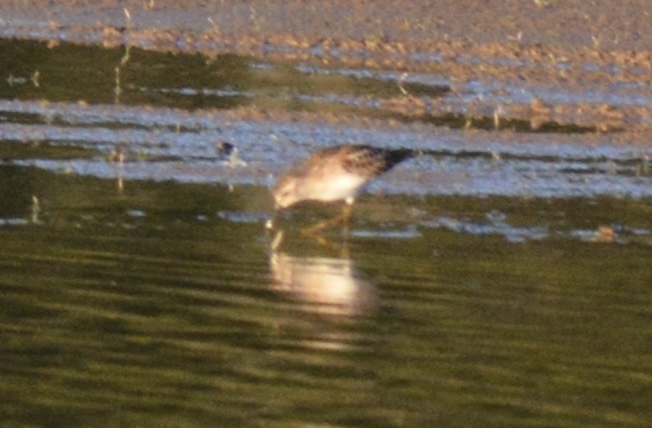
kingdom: Animalia
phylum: Chordata
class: Aves
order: Charadriiformes
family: Scolopacidae
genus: Calidris
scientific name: Calidris minutilla
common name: Least sandpiper
